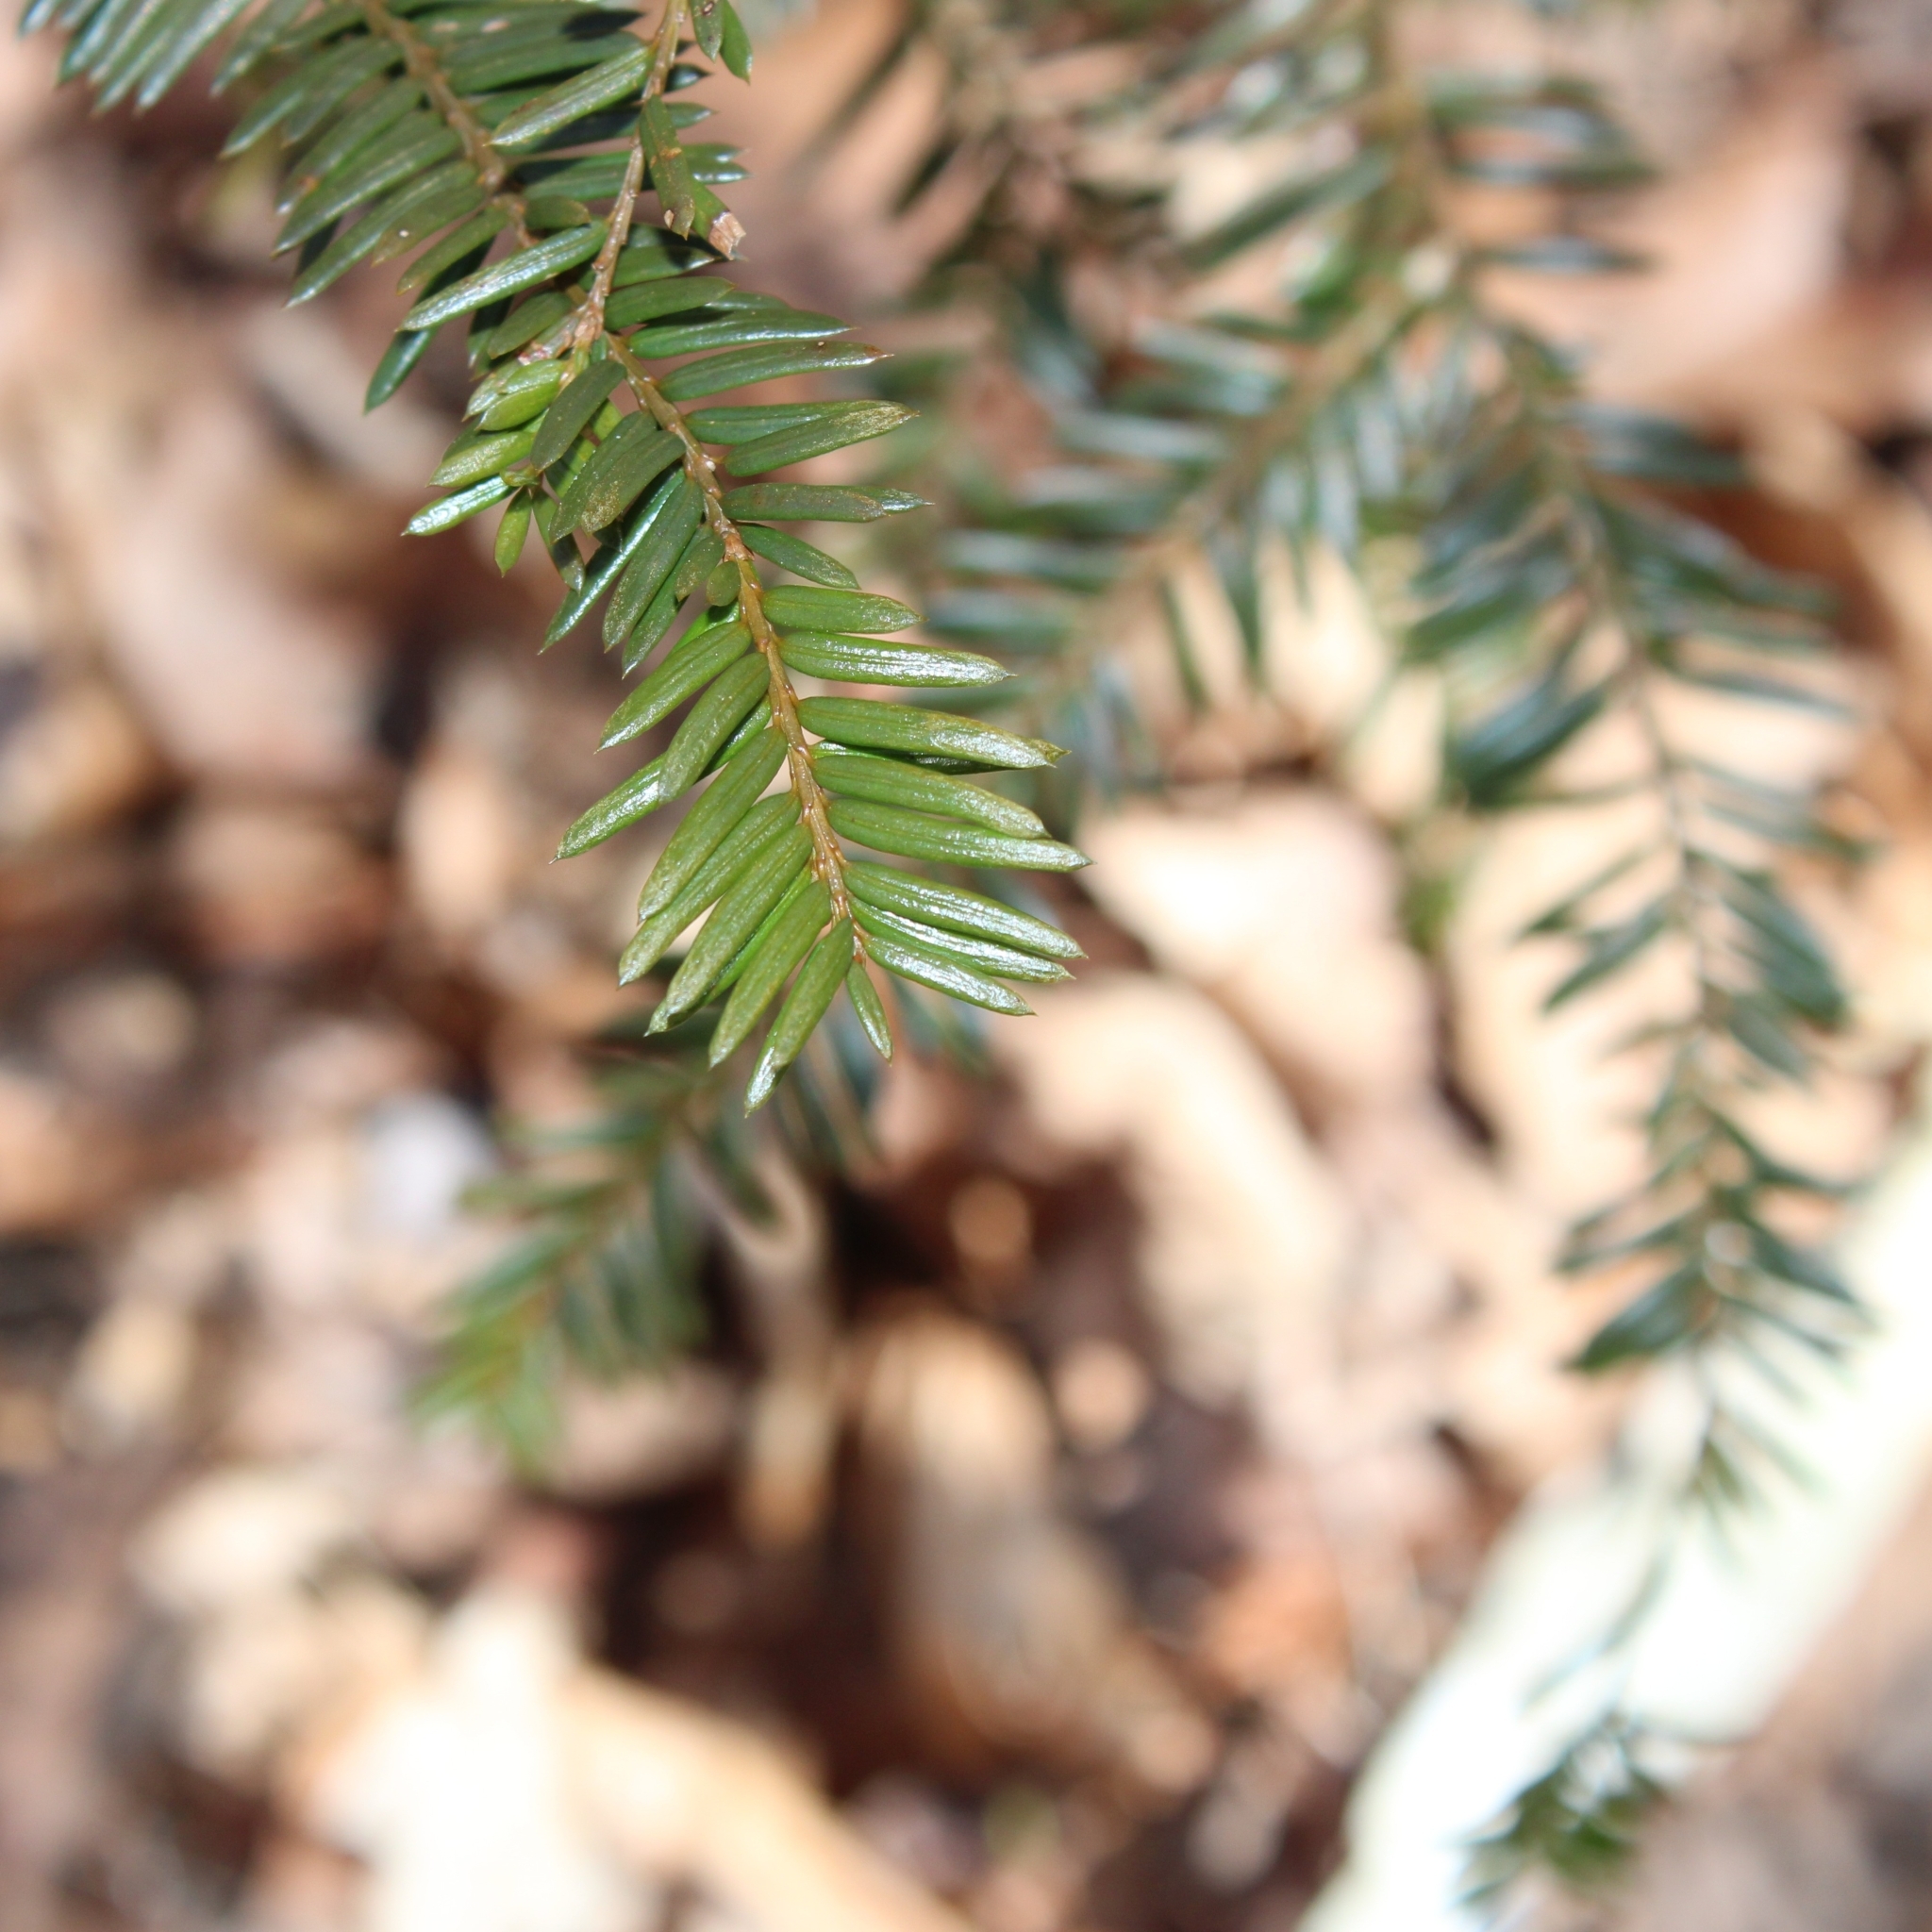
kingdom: Plantae
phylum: Tracheophyta
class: Pinopsida
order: Pinales
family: Pinaceae
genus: Tsuga
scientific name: Tsuga canadensis
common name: Eastern hemlock
